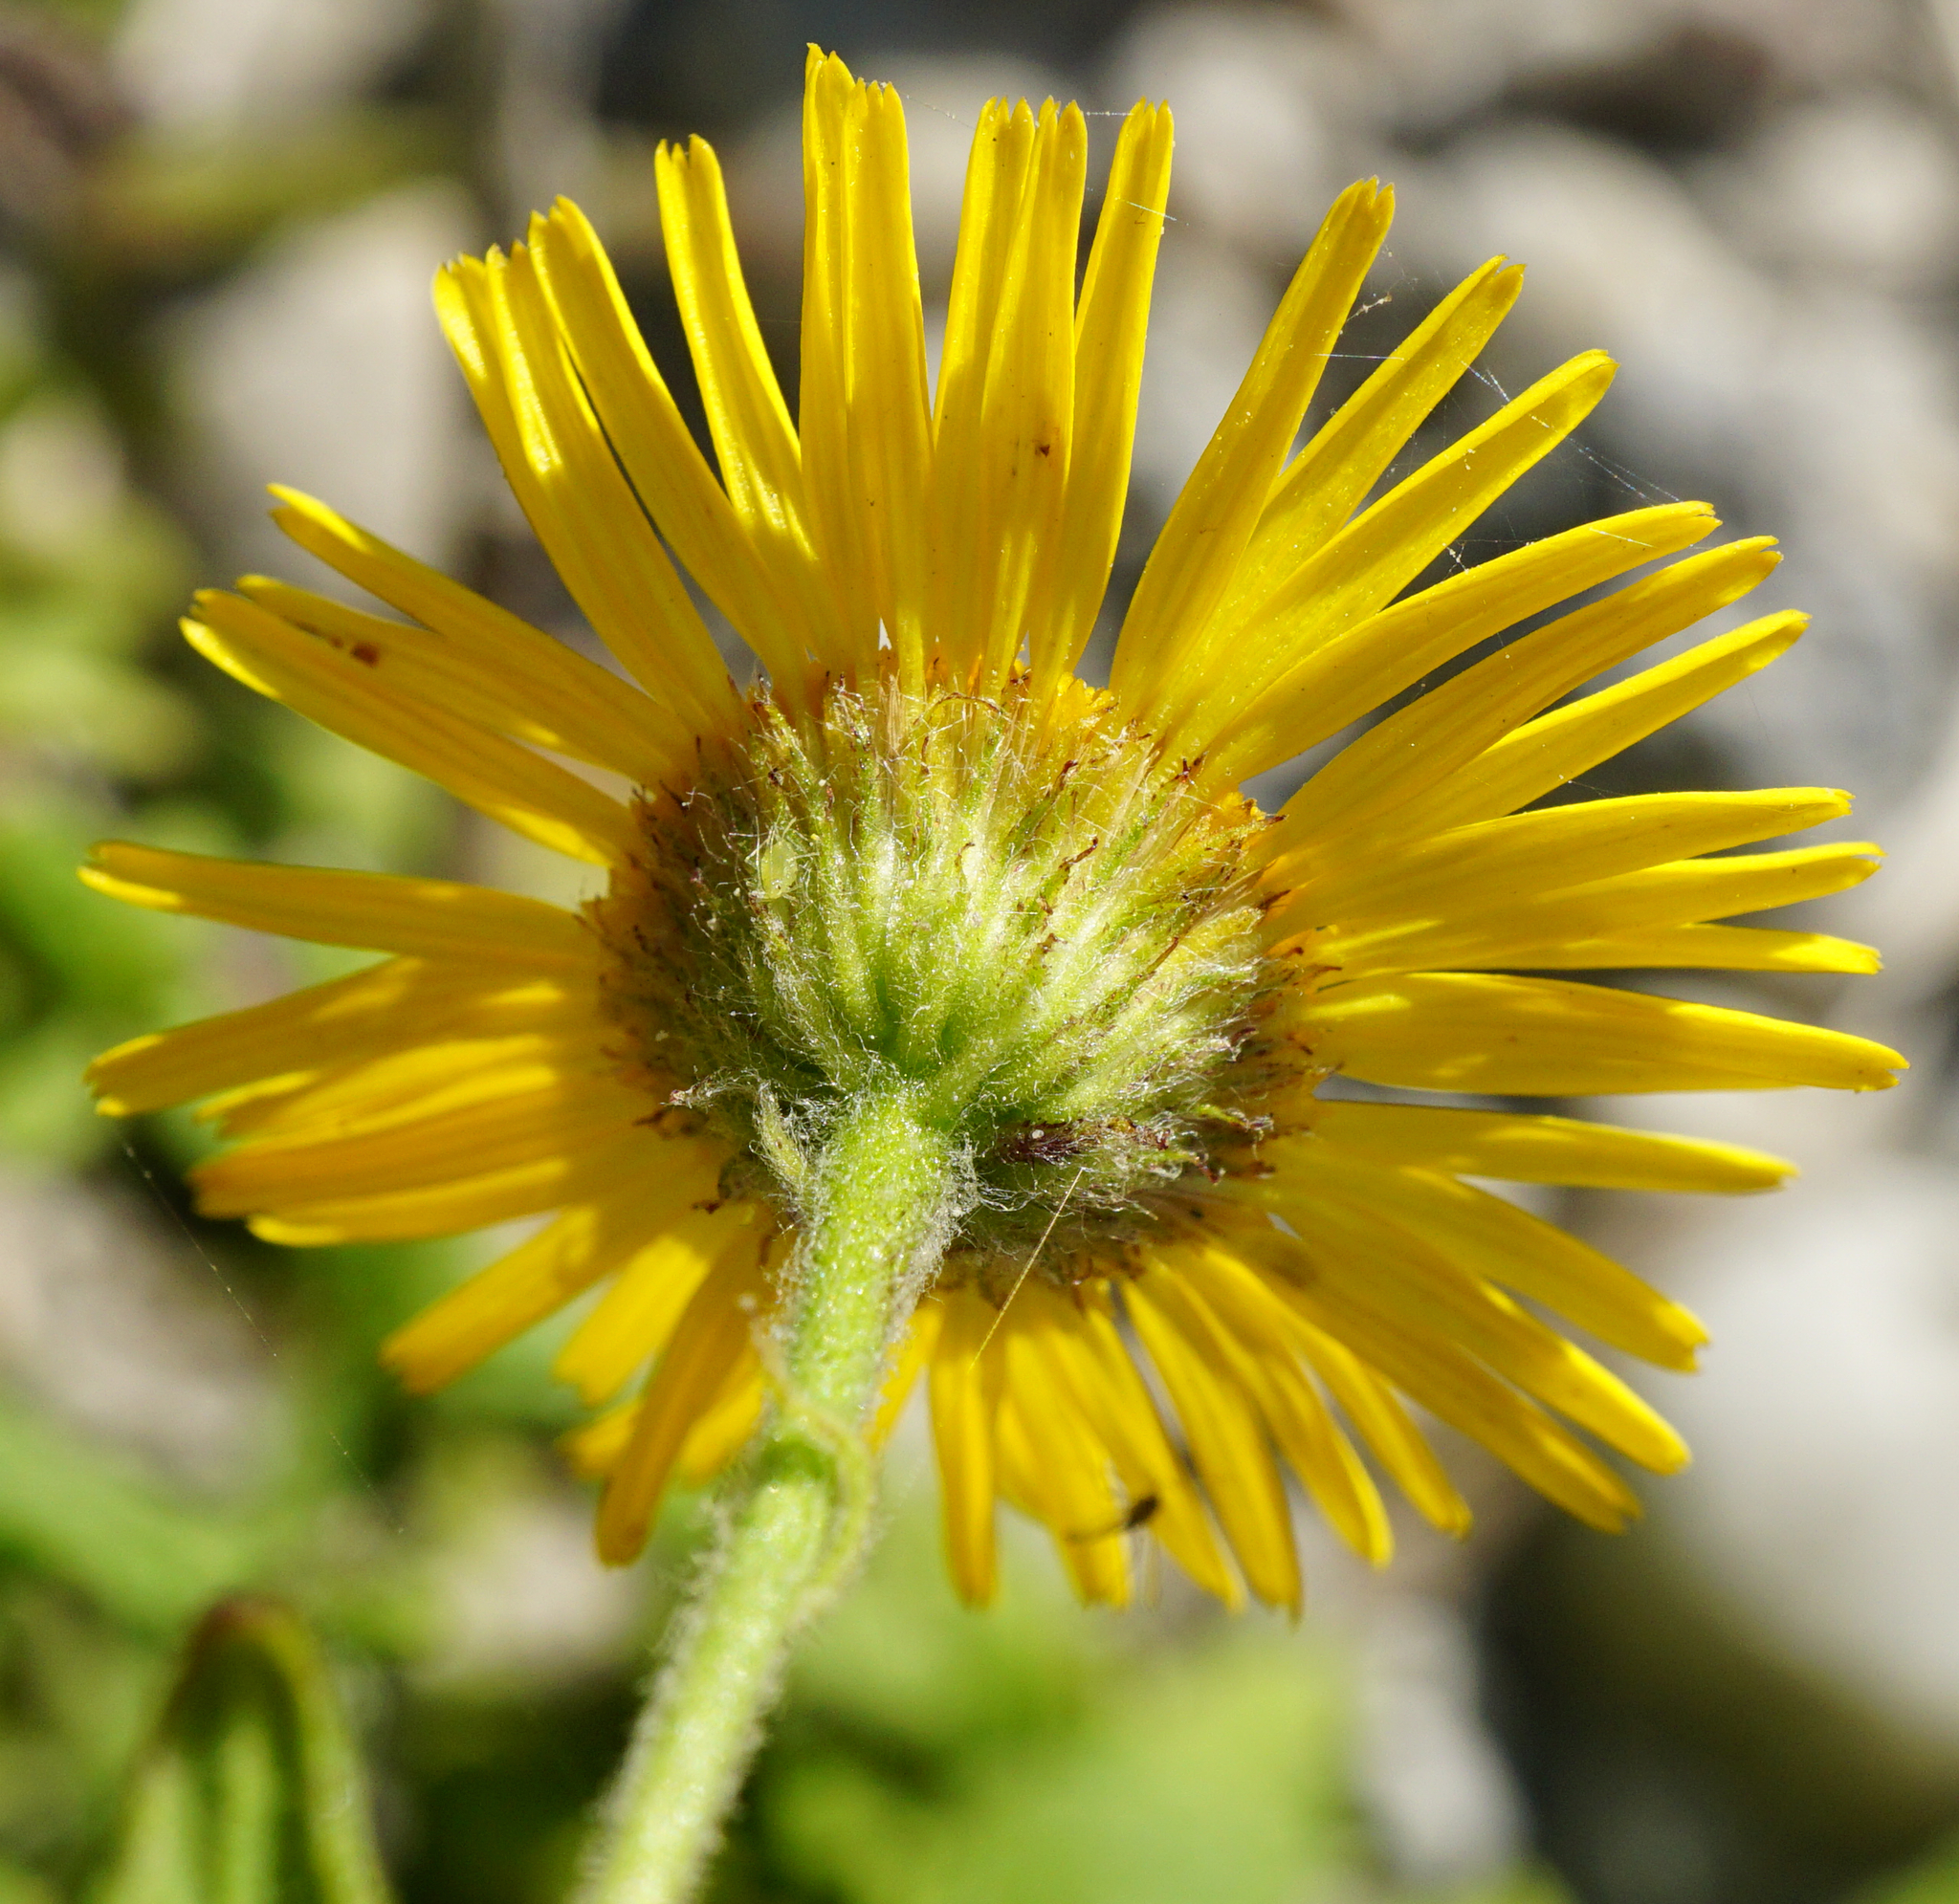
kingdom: Plantae
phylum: Tracheophyta
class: Magnoliopsida
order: Asterales
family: Asteraceae
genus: Pulicaria
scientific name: Pulicaria dysenterica
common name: Common fleabane
